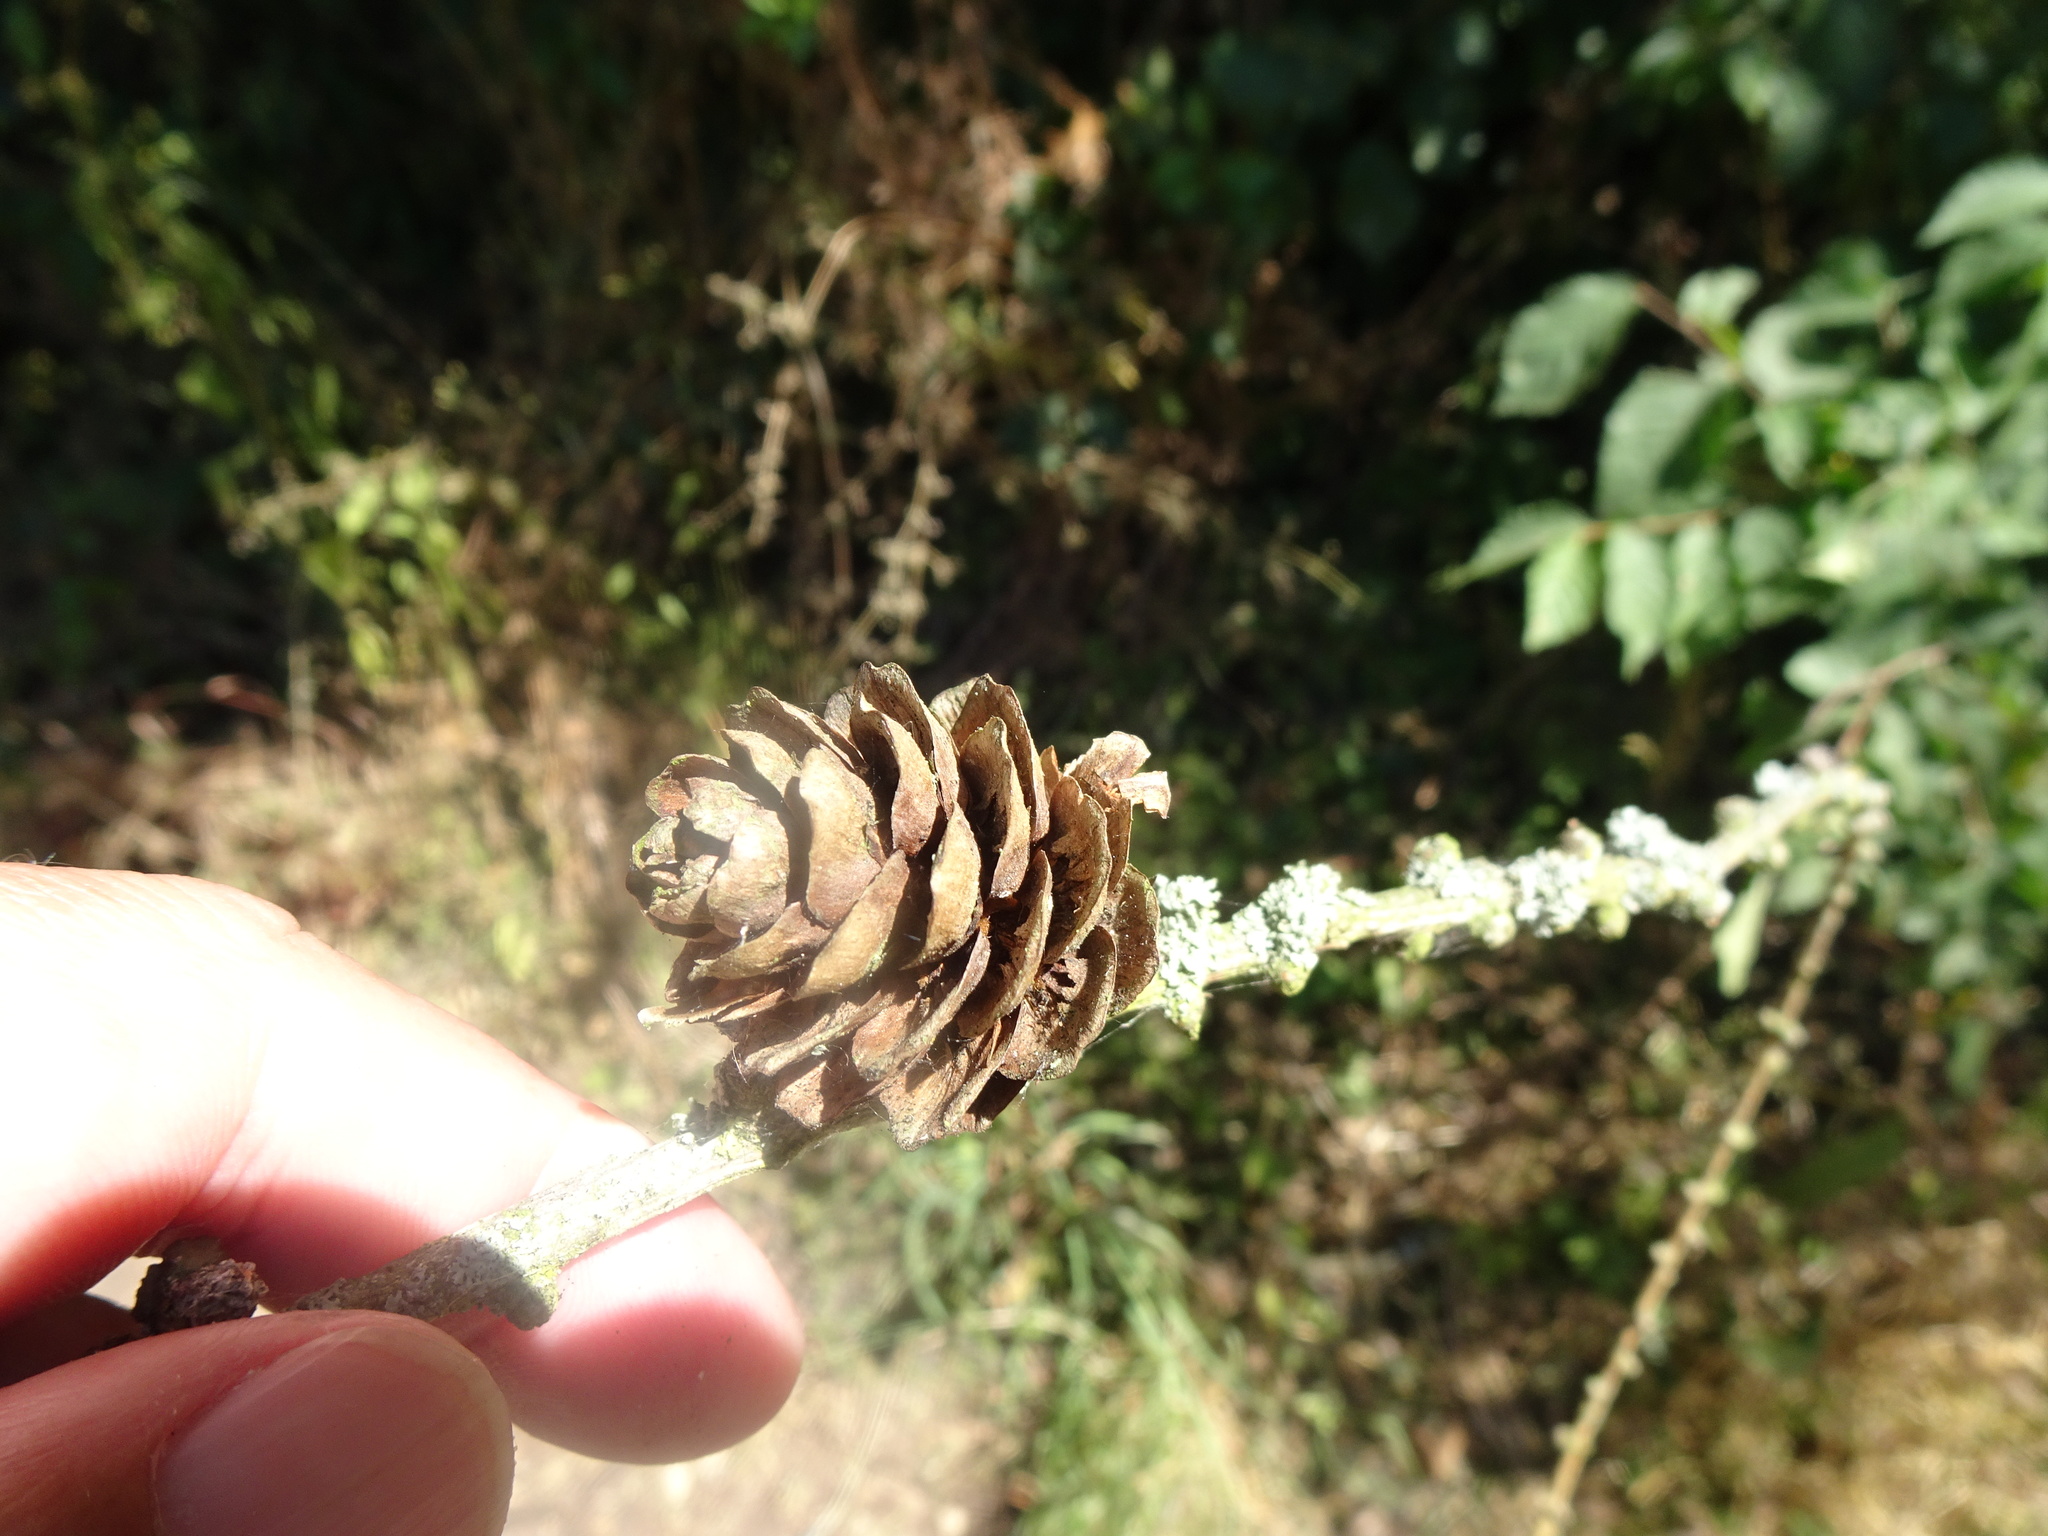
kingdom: Plantae
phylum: Tracheophyta
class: Pinopsida
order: Pinales
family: Pinaceae
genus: Larix
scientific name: Larix decidua
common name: European larch
